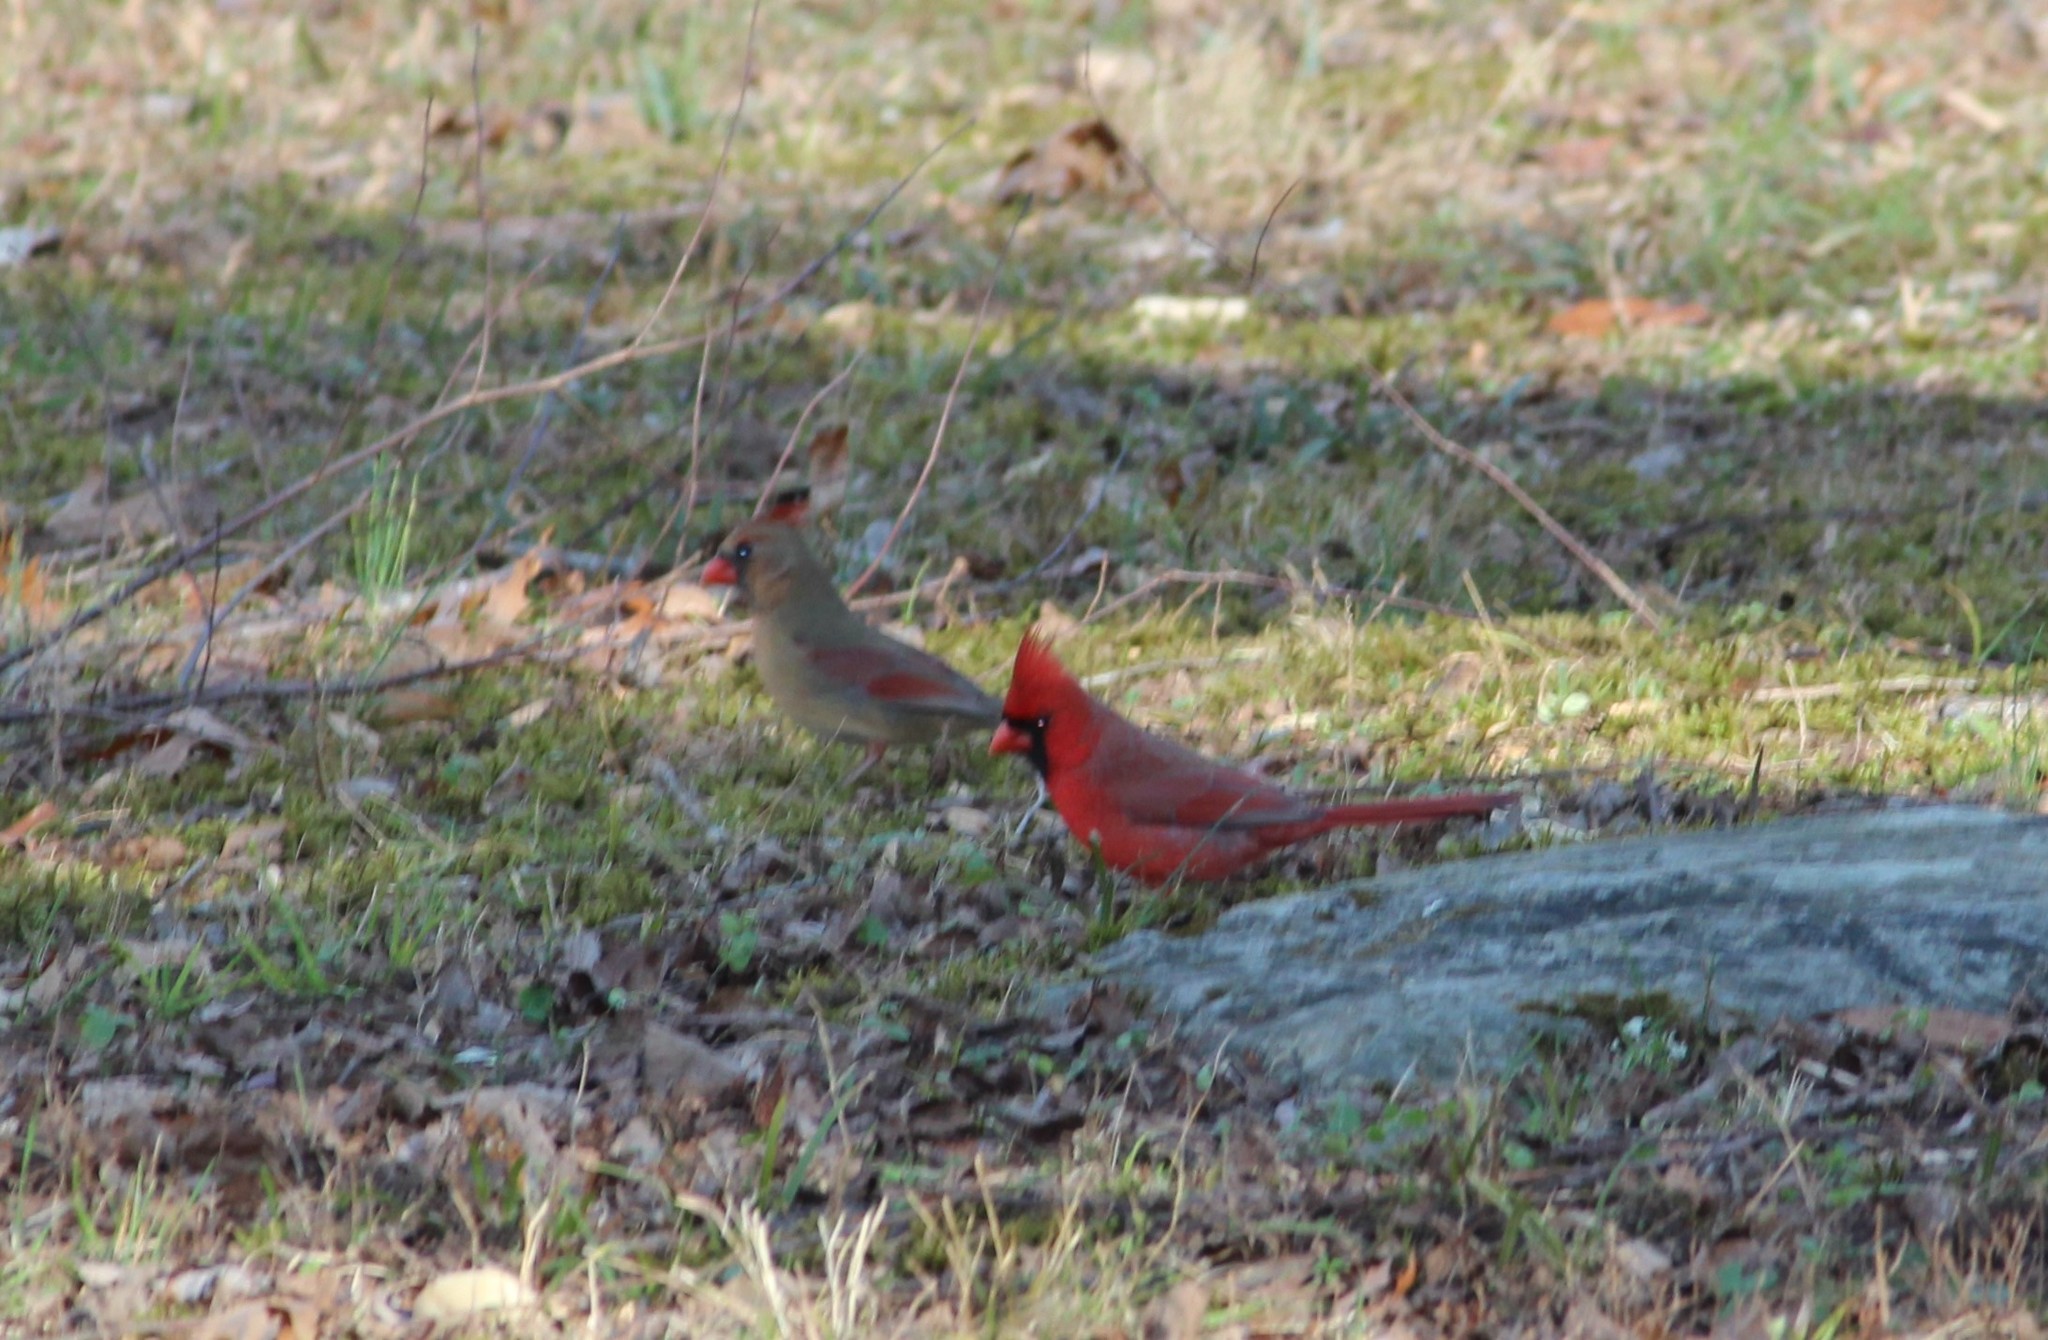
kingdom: Animalia
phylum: Chordata
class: Aves
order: Passeriformes
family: Cardinalidae
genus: Cardinalis
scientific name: Cardinalis cardinalis
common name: Northern cardinal
